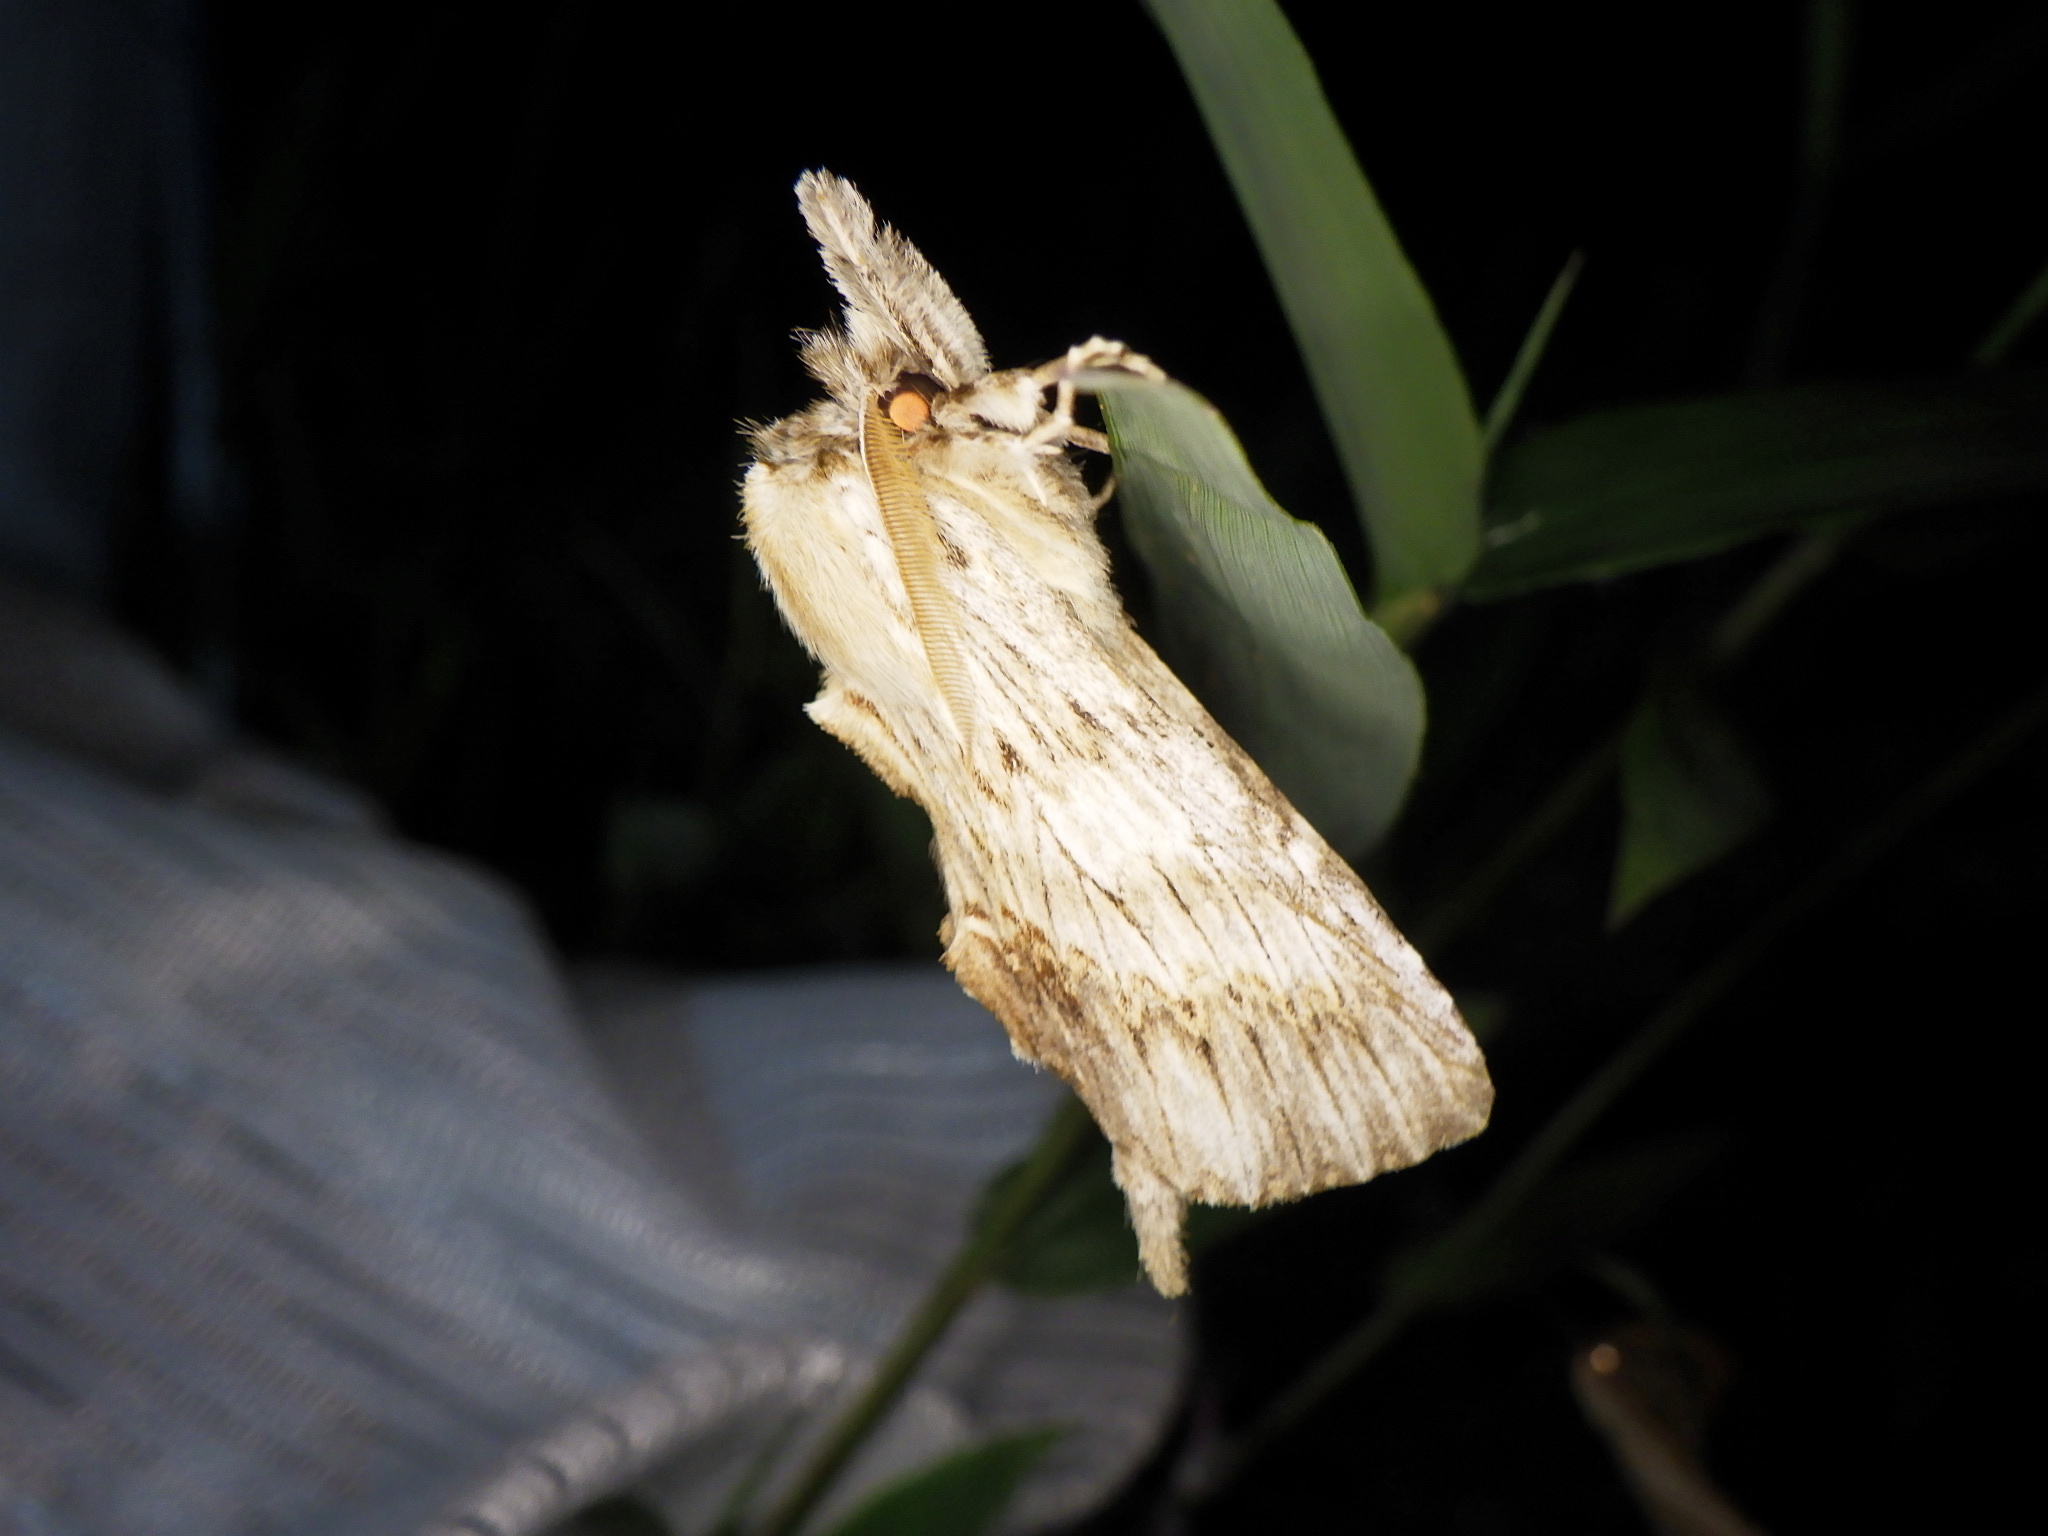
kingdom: Animalia
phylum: Arthropoda
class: Insecta
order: Lepidoptera
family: Notodontidae
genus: Pterostoma
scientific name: Pterostoma gigantina
